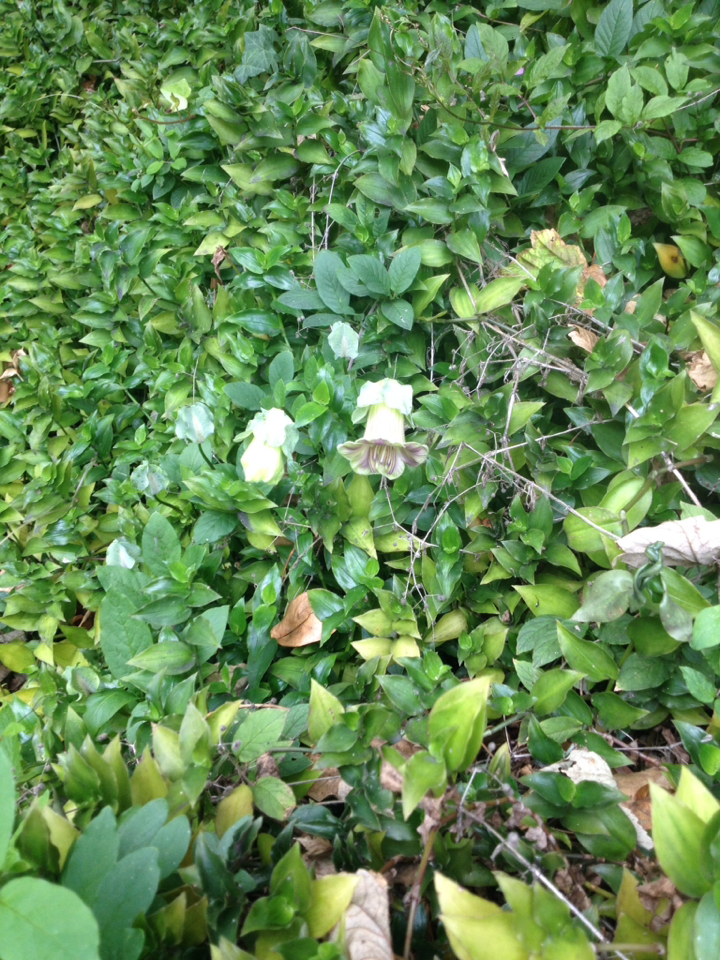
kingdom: Plantae
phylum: Tracheophyta
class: Magnoliopsida
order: Ericales
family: Polemoniaceae
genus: Cobaea
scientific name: Cobaea scandens
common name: Cup-and-saucer-vine
